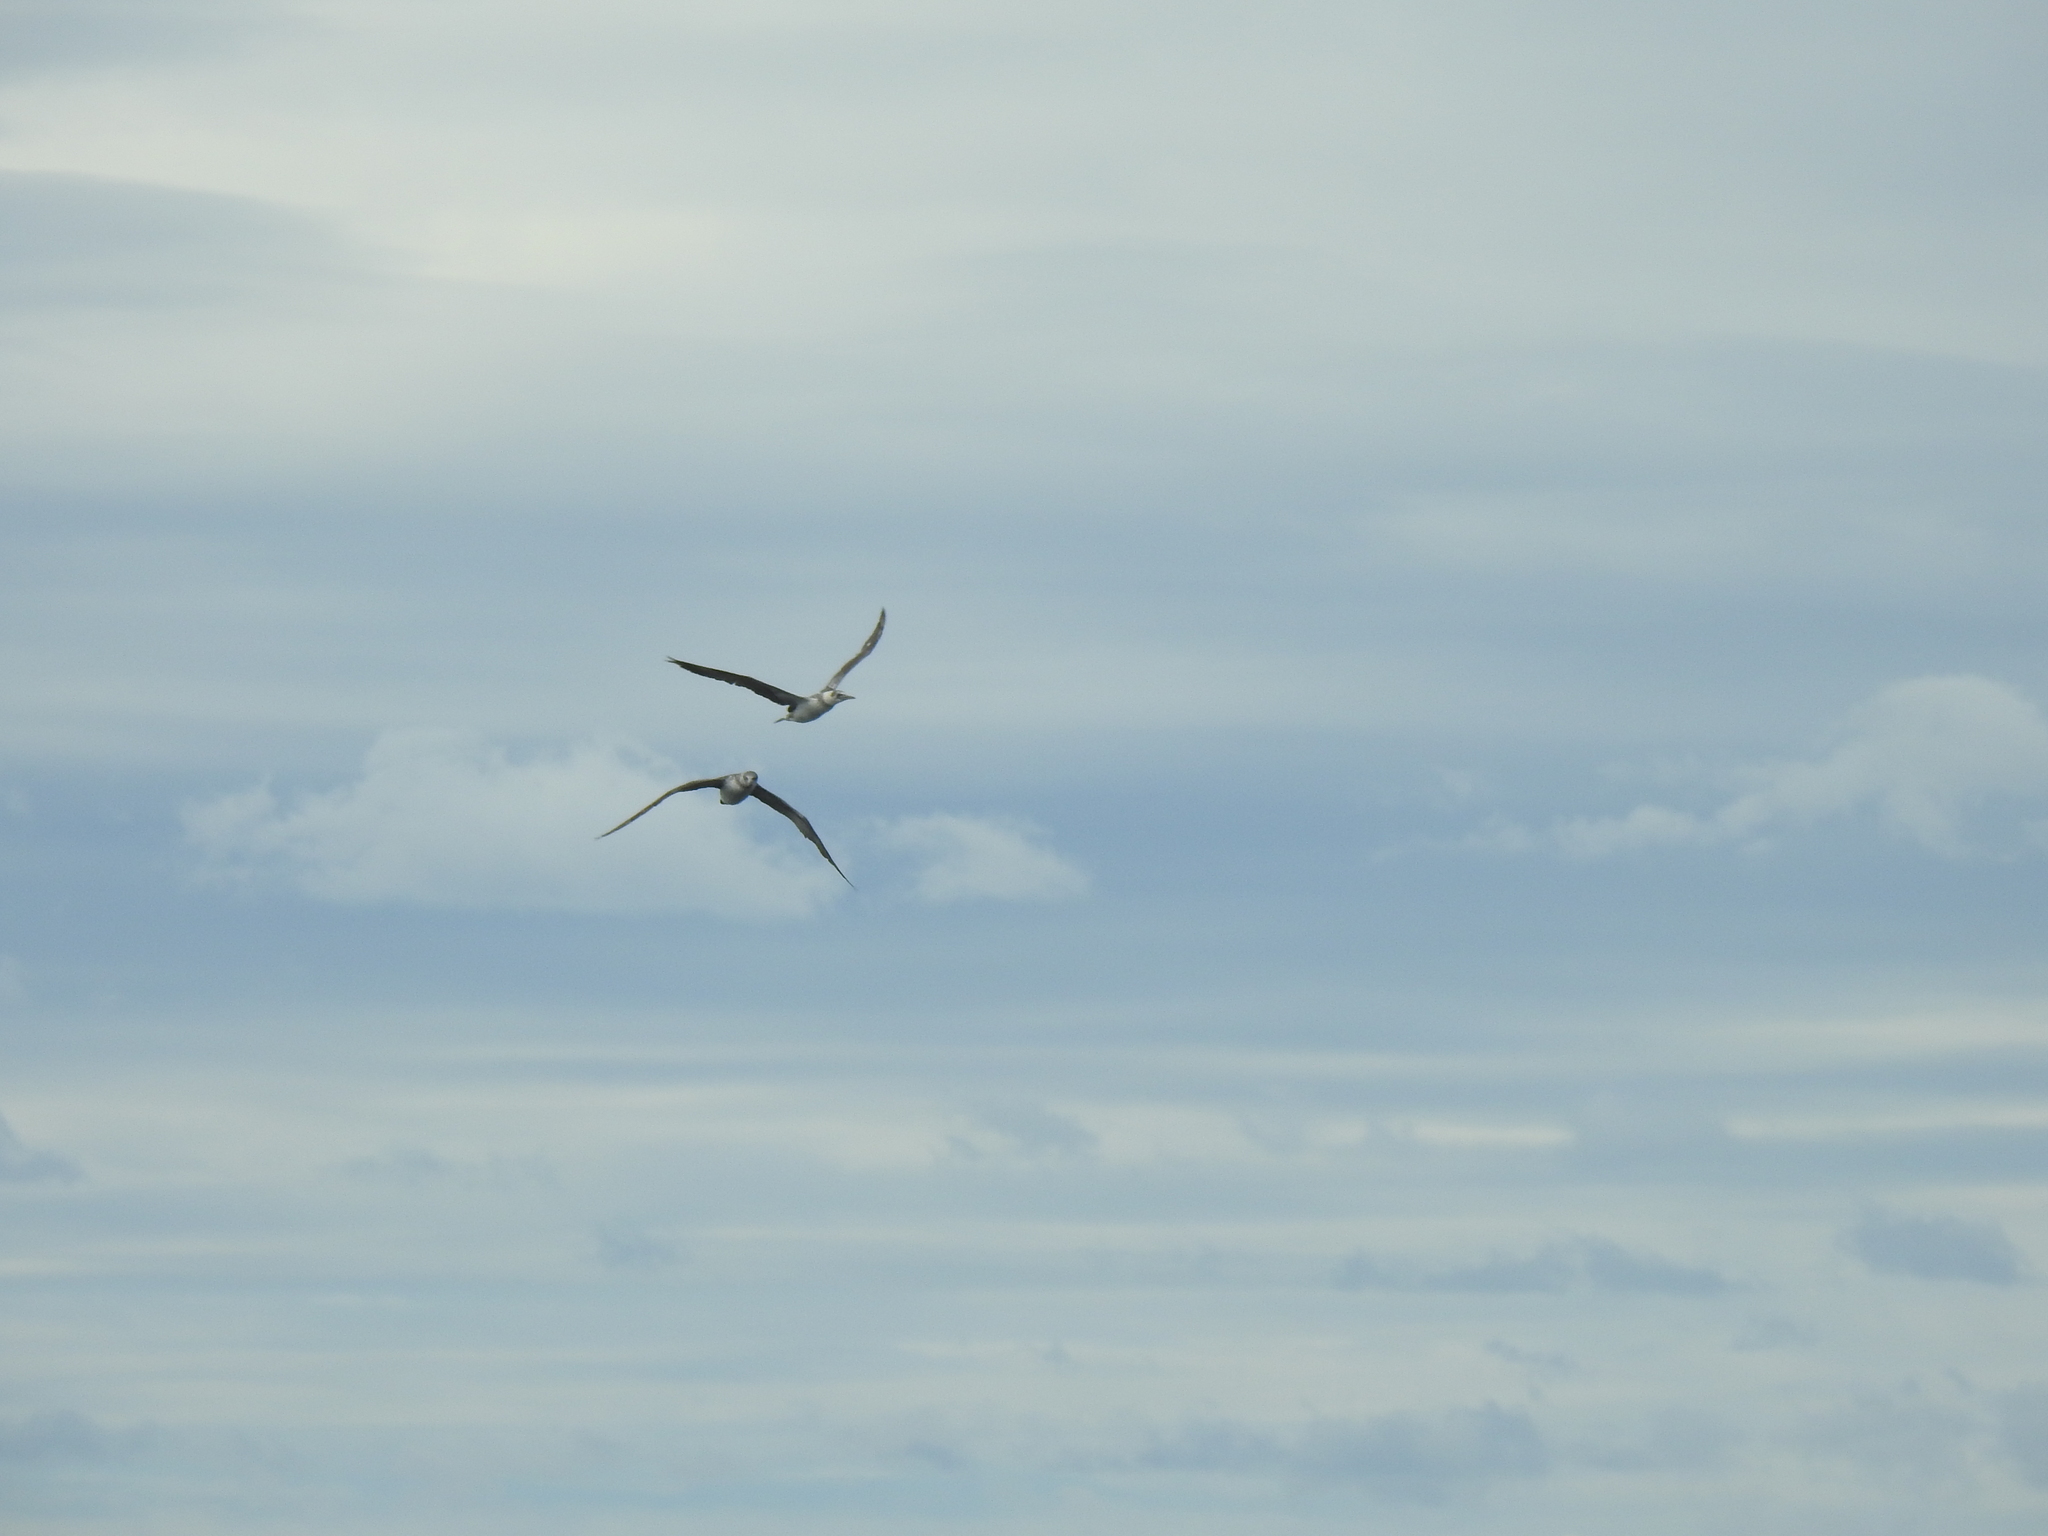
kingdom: Animalia
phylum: Chordata
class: Aves
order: Suliformes
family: Sulidae
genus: Morus
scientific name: Morus bassanus
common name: Northern gannet
